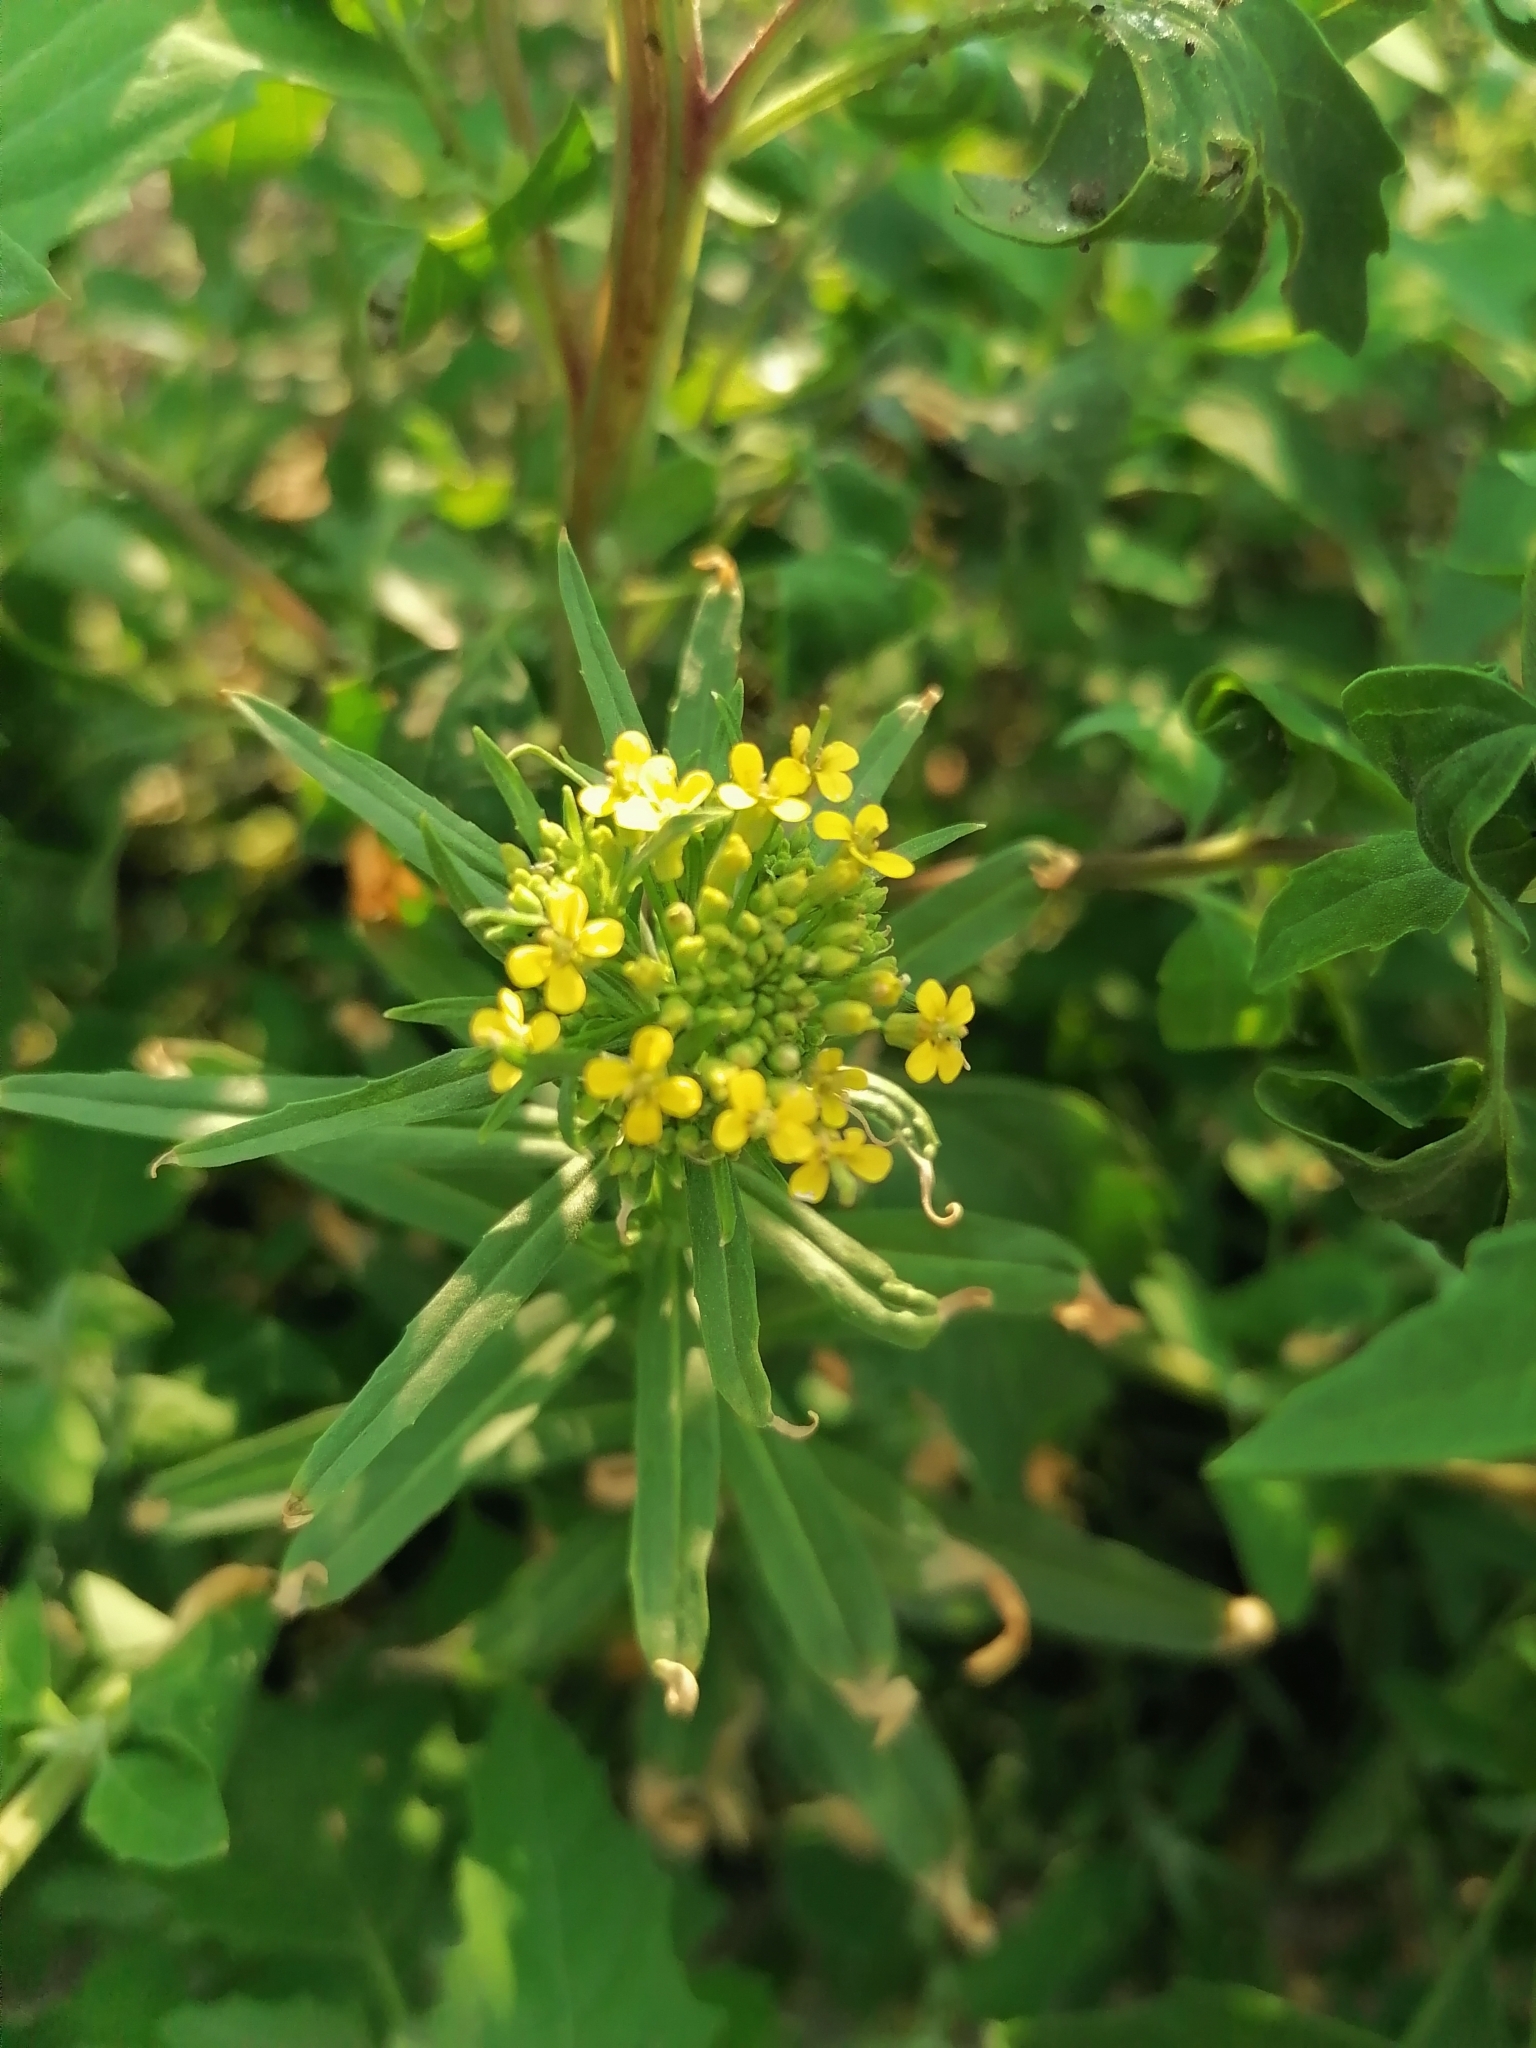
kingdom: Plantae
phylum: Tracheophyta
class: Magnoliopsida
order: Brassicales
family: Brassicaceae
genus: Erysimum
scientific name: Erysimum cheiranthoides
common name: Treacle mustard
